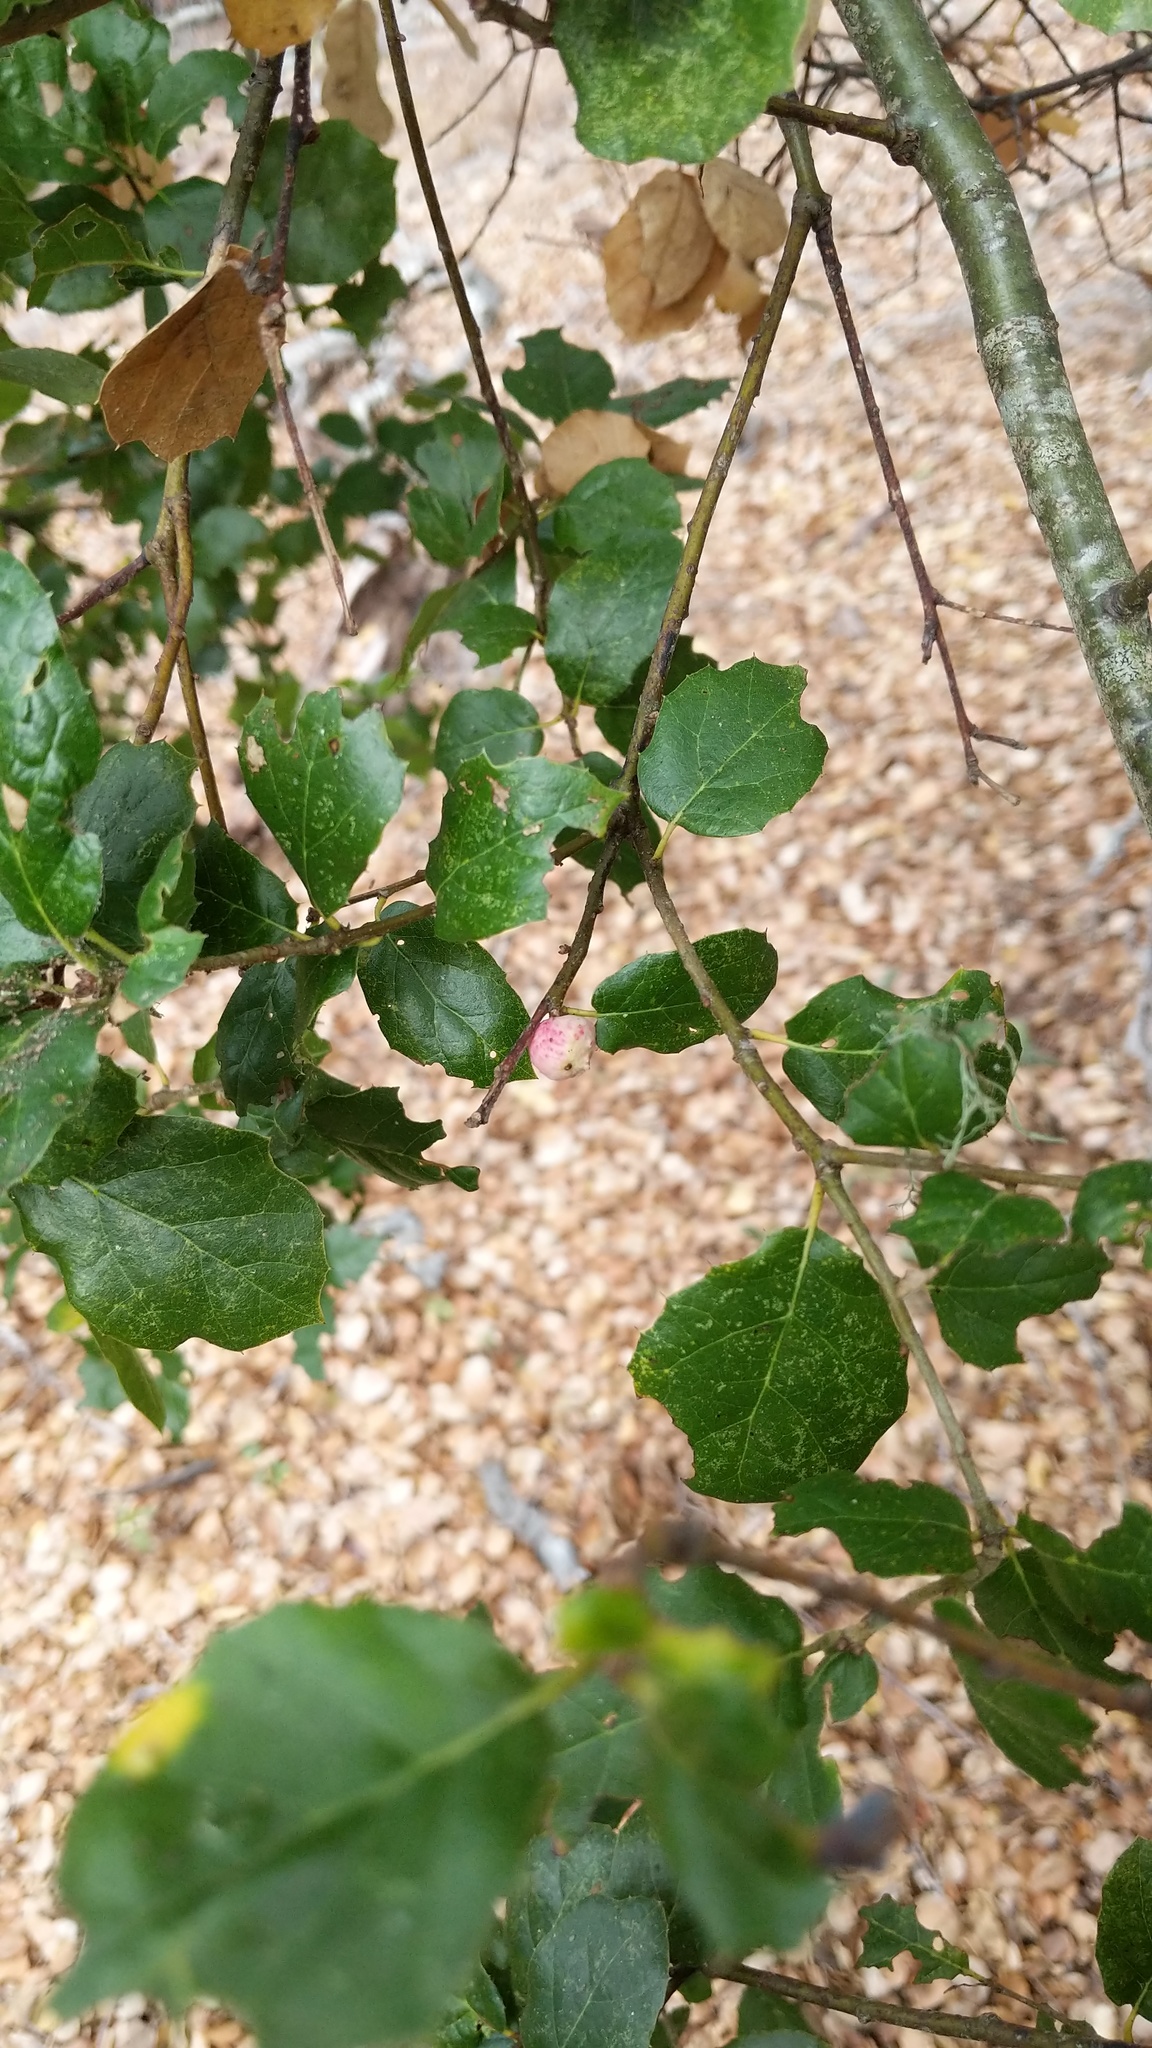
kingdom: Animalia
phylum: Arthropoda
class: Insecta
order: Hymenoptera
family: Cynipidae
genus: Amphibolips
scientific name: Amphibolips quercuspomiformis
